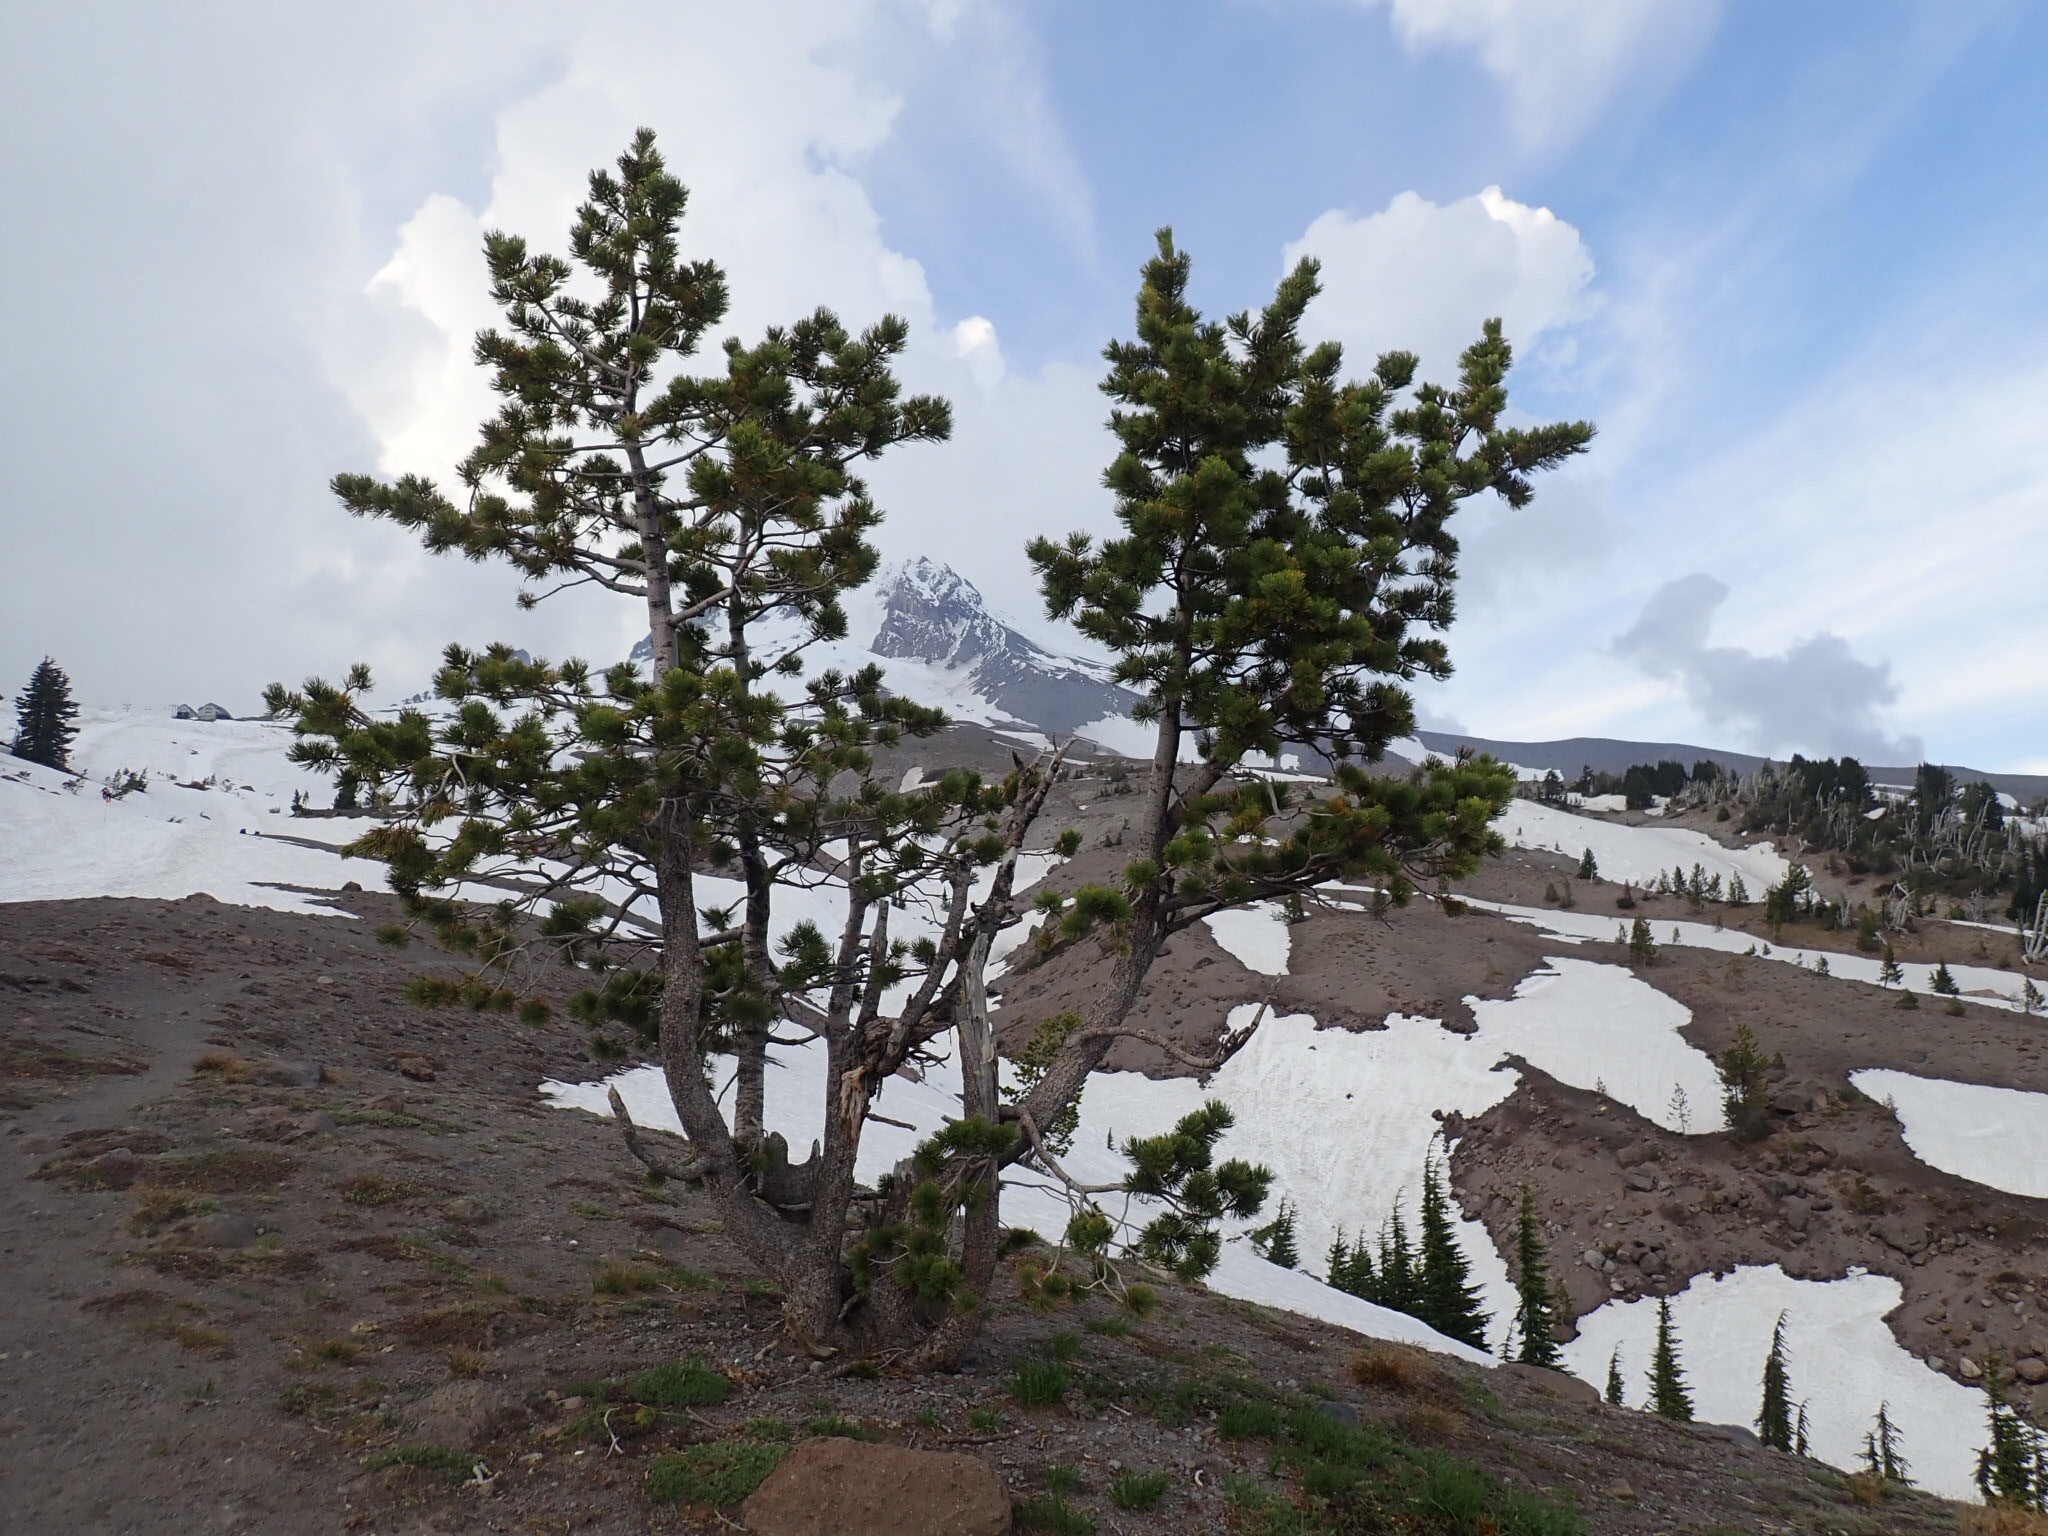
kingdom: Plantae
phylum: Tracheophyta
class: Pinopsida
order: Pinales
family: Pinaceae
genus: Pinus
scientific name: Pinus albicaulis
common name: Whitebark pine
